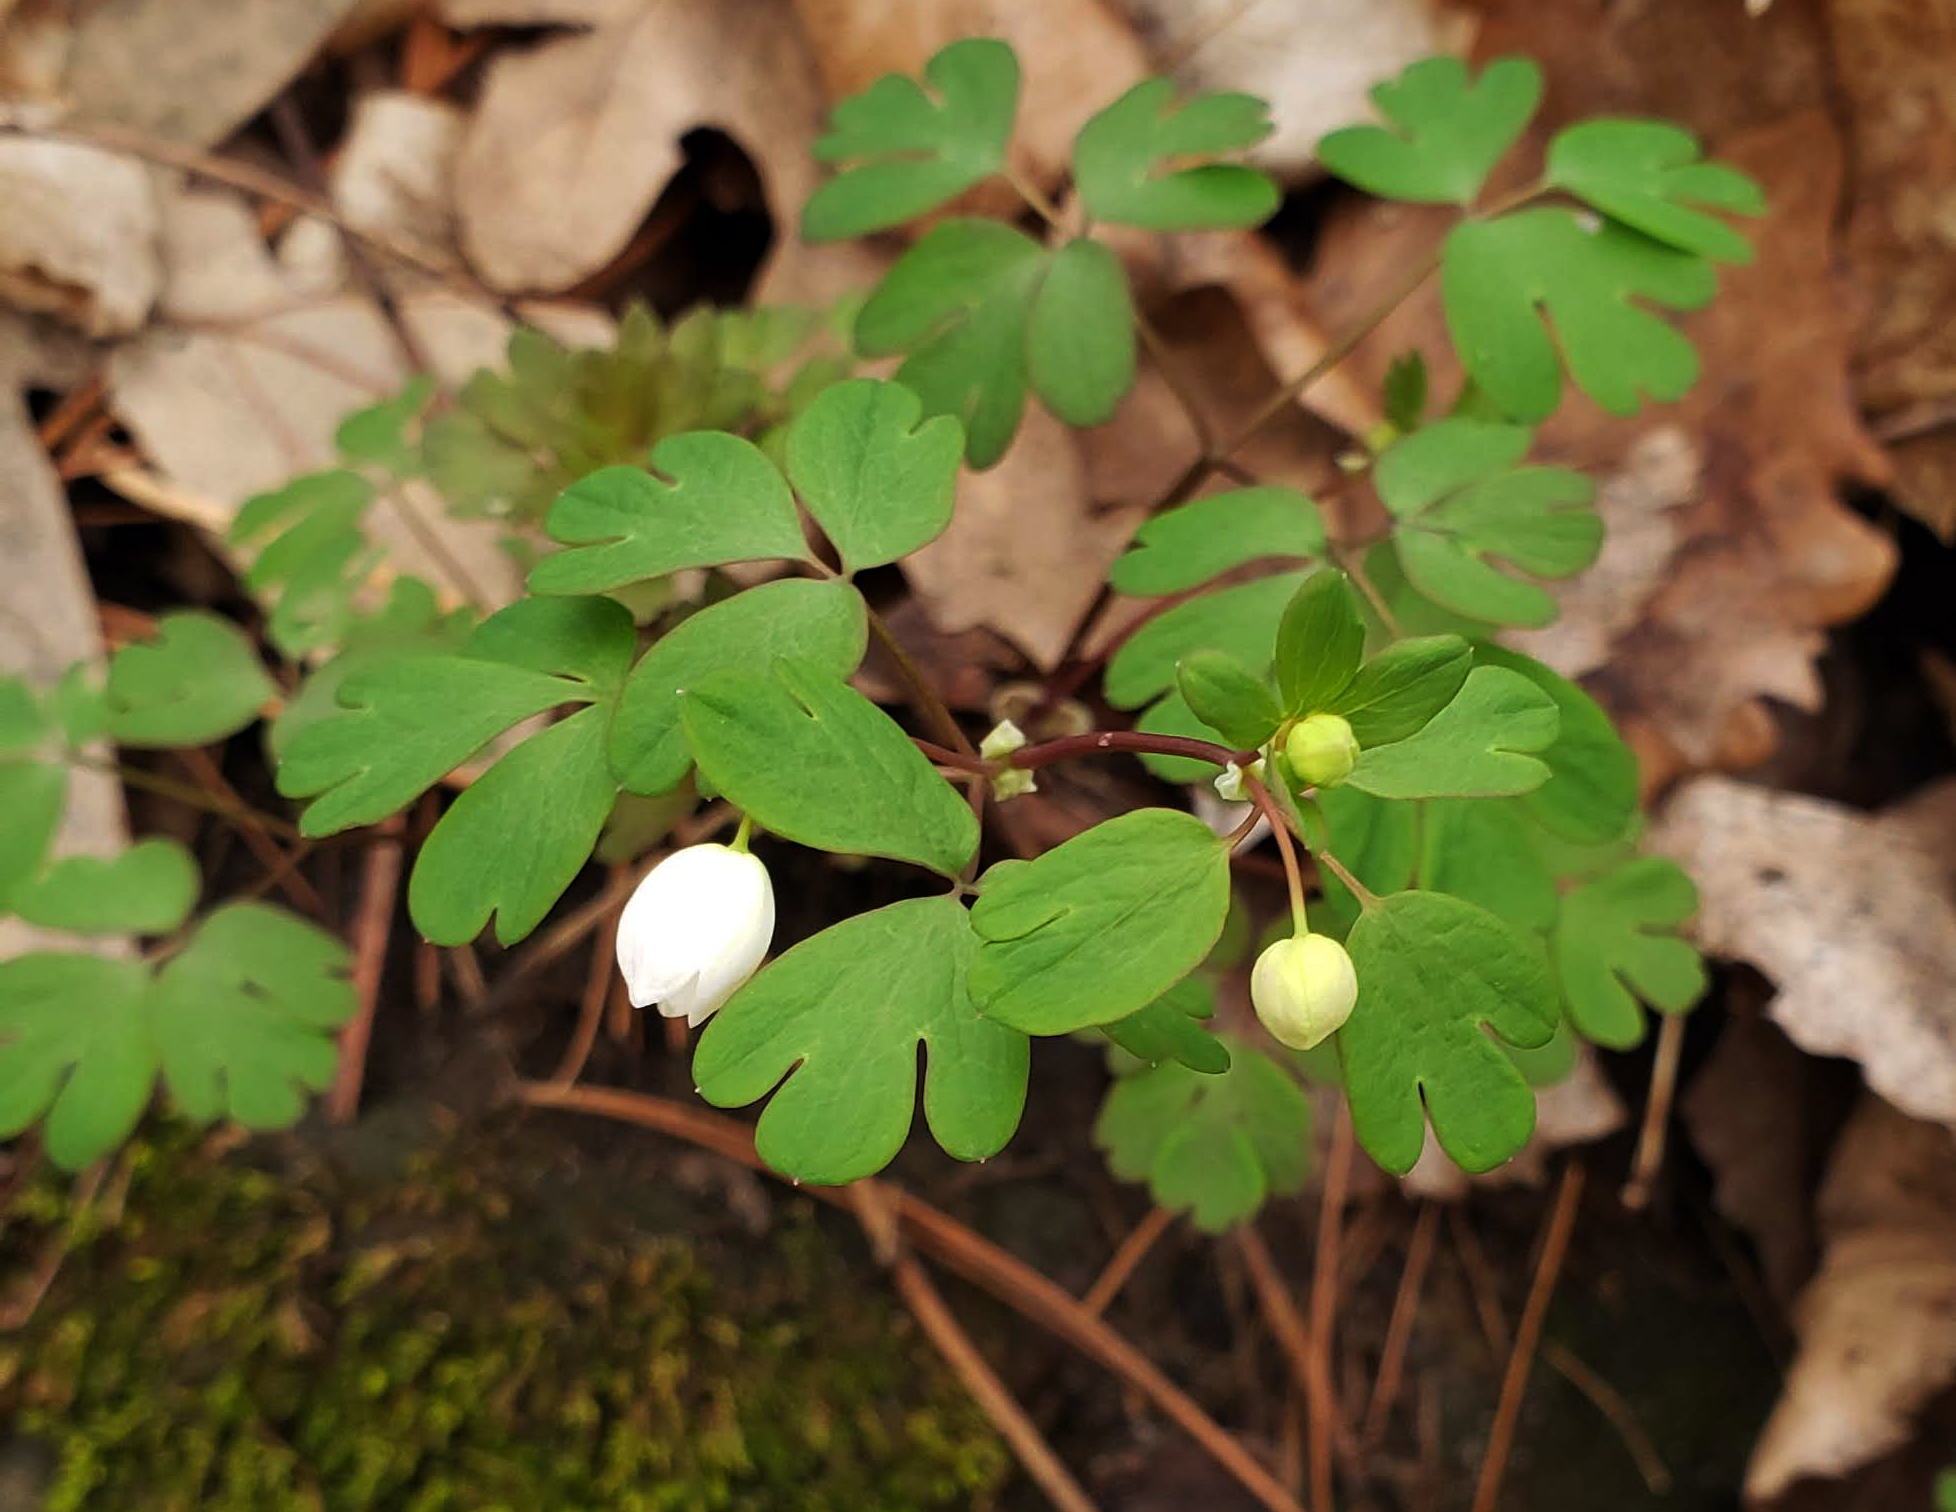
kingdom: Plantae
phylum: Tracheophyta
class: Magnoliopsida
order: Ranunculales
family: Ranunculaceae
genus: Enemion
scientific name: Enemion biternatum
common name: Eastern false rue-anemone
